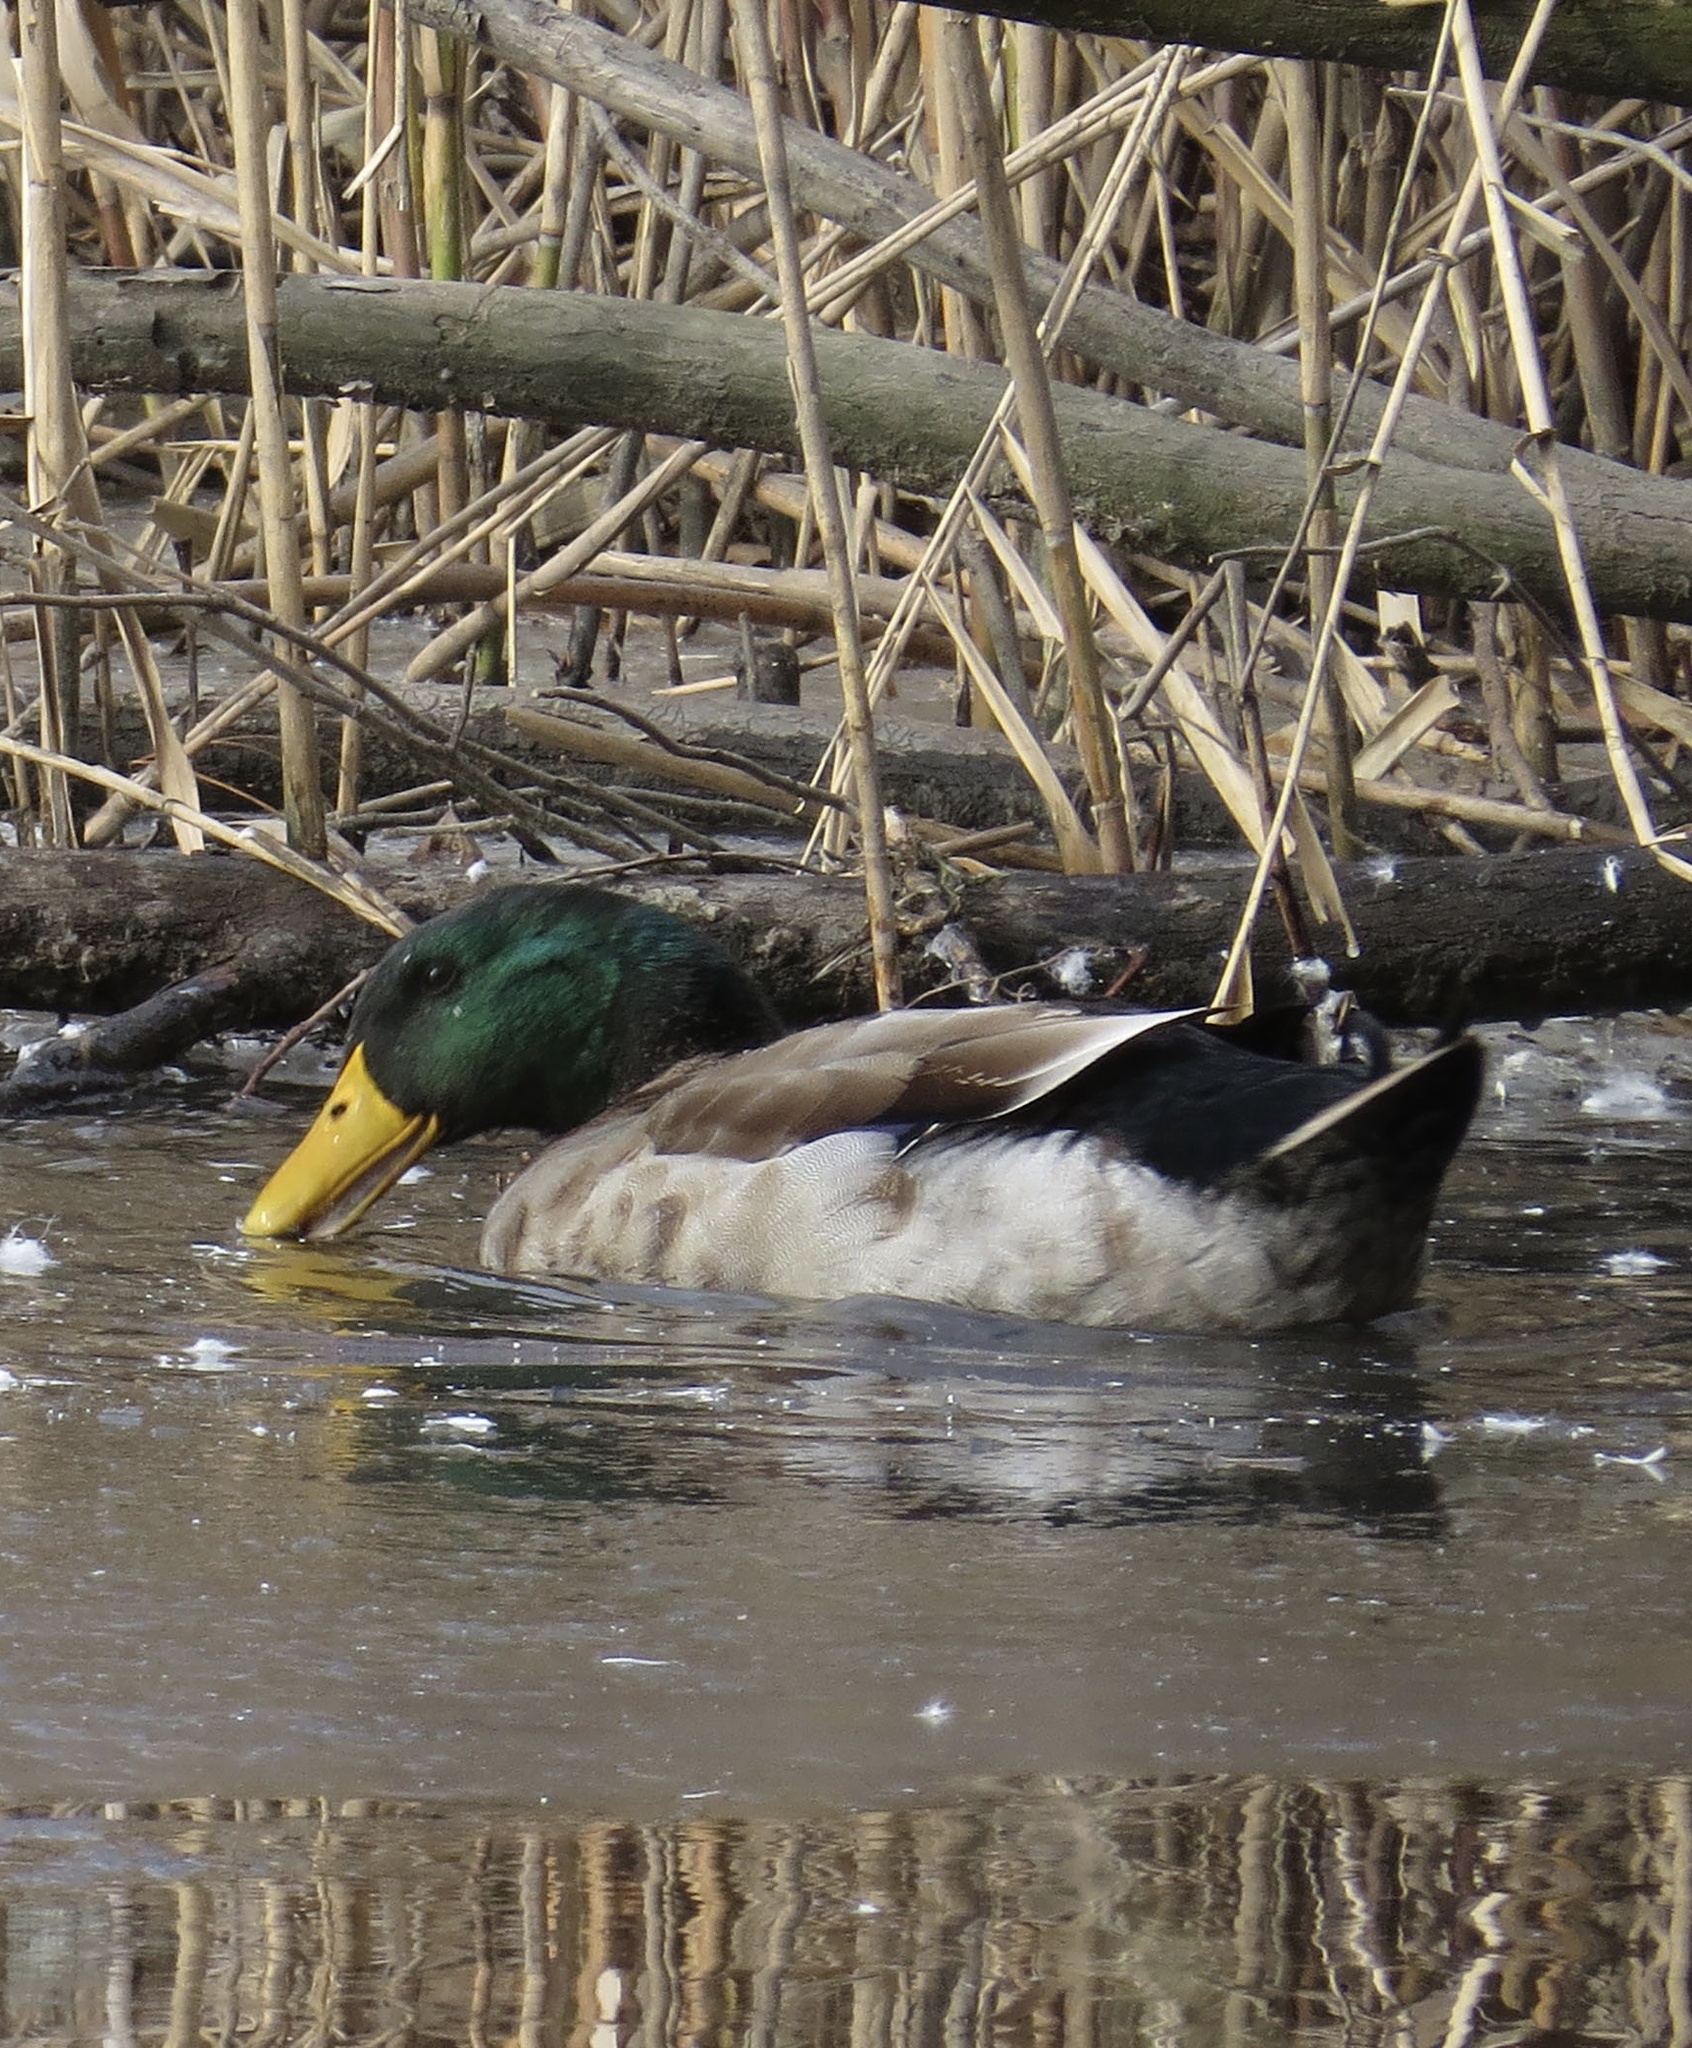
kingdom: Animalia
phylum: Chordata
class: Aves
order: Anseriformes
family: Anatidae
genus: Anas
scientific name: Anas platyrhynchos
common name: Mallard
